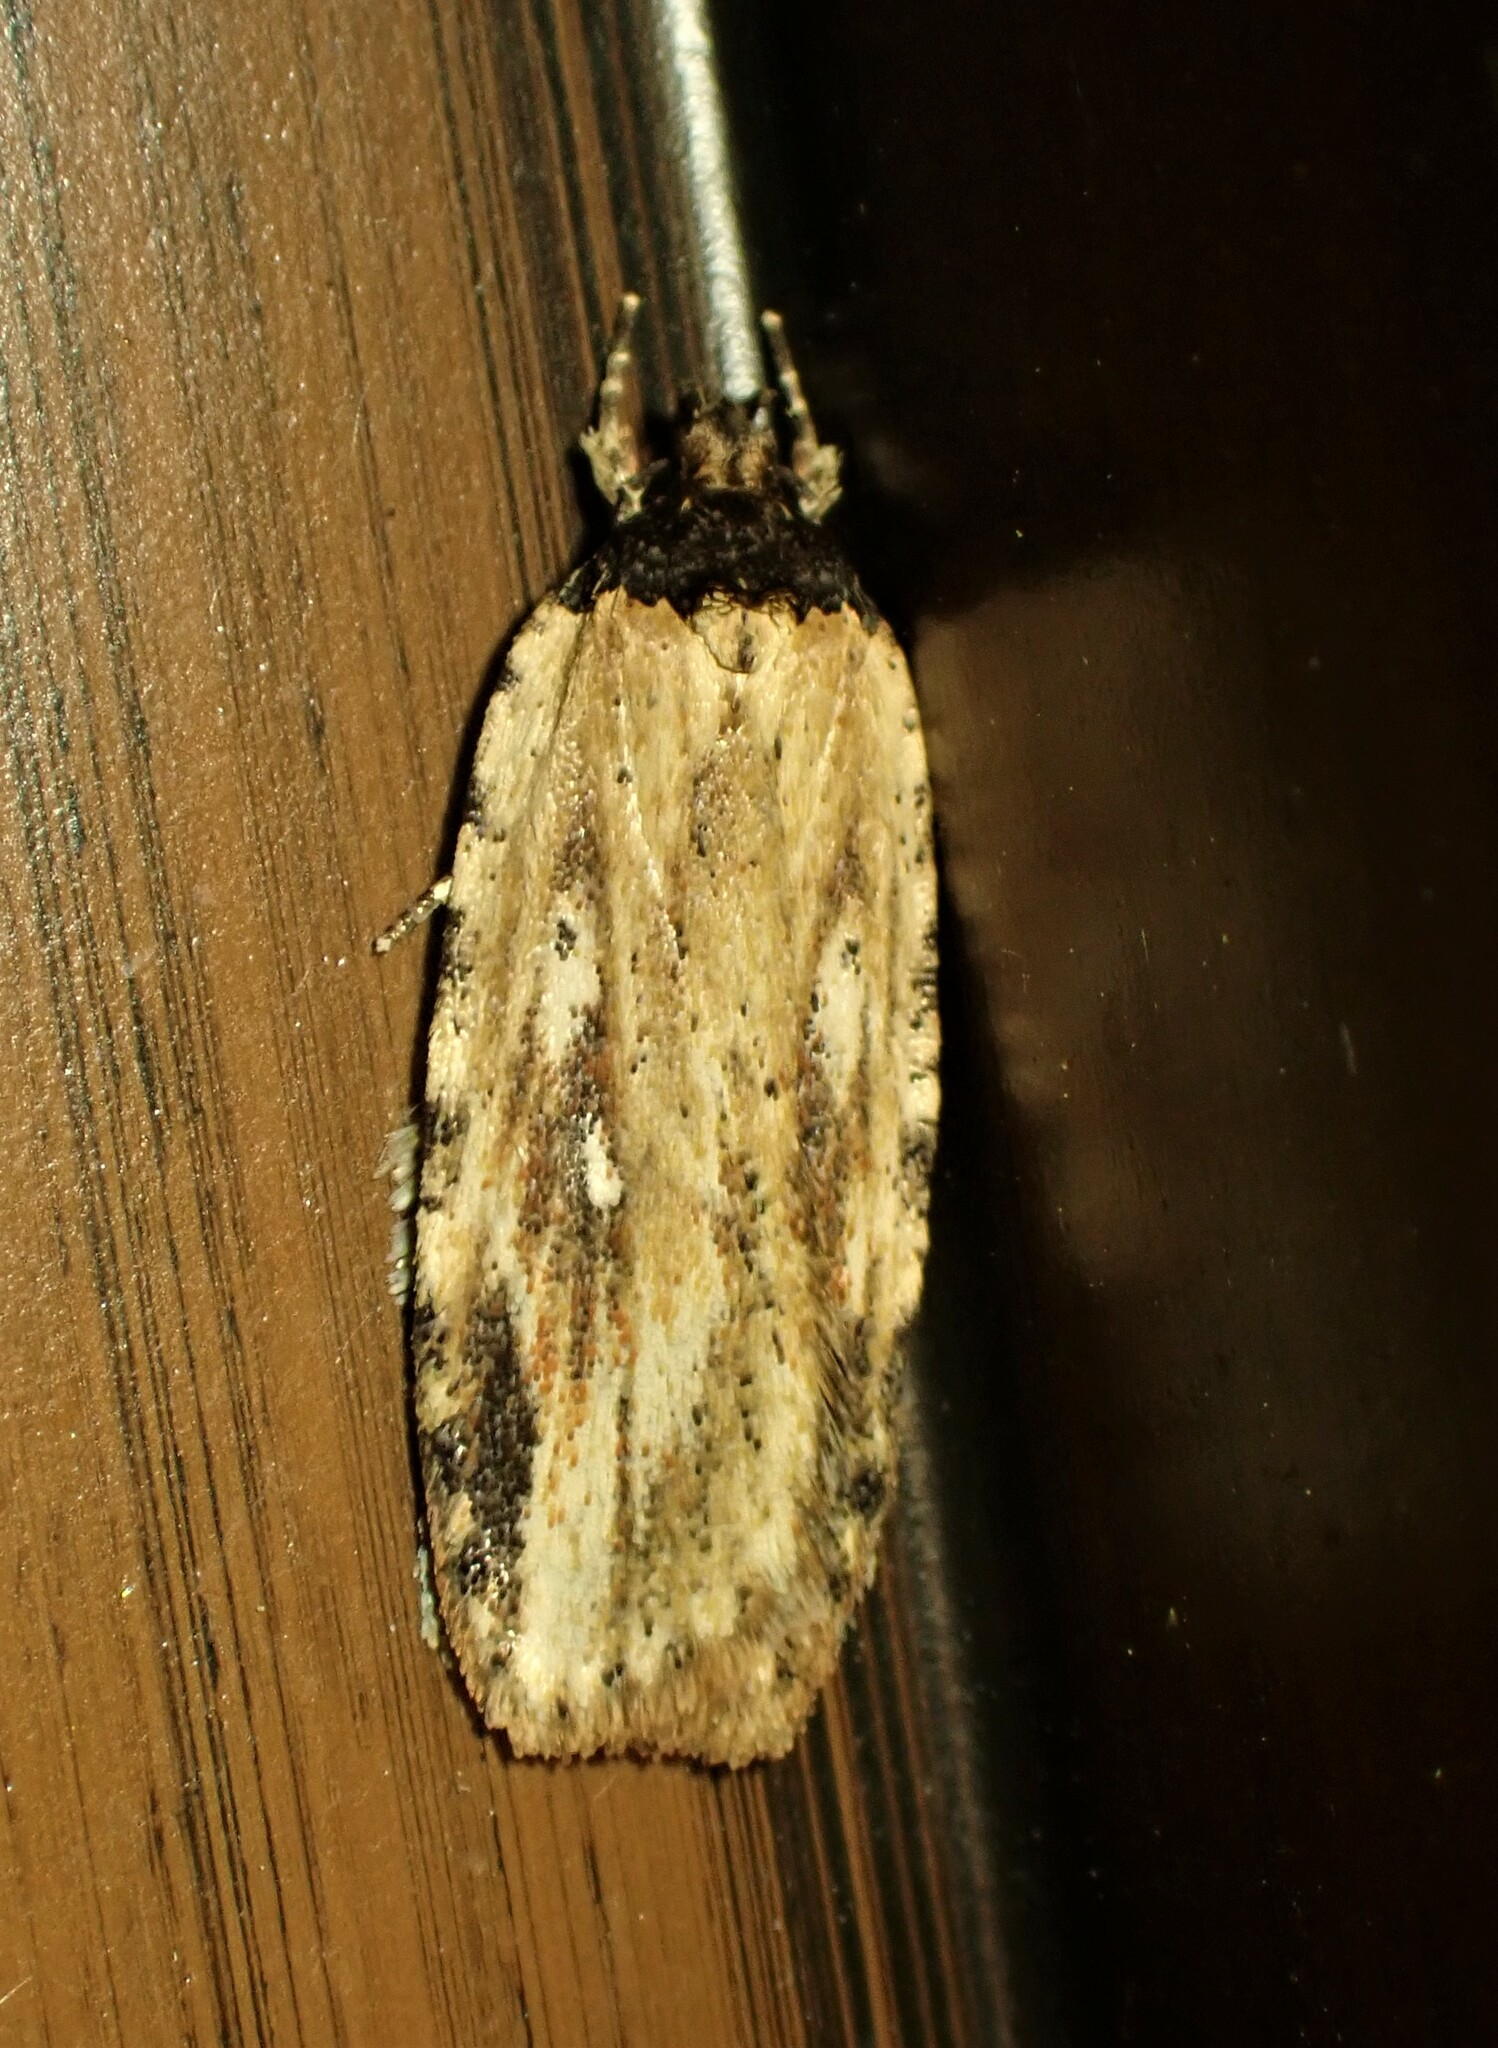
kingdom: Animalia
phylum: Arthropoda
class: Insecta
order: Lepidoptera
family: Depressariidae
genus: Agonopterix
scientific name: Agonopterix atrodorsella
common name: Beggartick leaffolder
